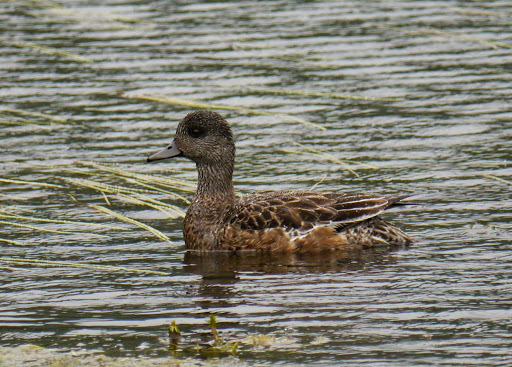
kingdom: Animalia
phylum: Chordata
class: Aves
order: Anseriformes
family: Anatidae
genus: Mareca
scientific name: Mareca americana
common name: American wigeon
